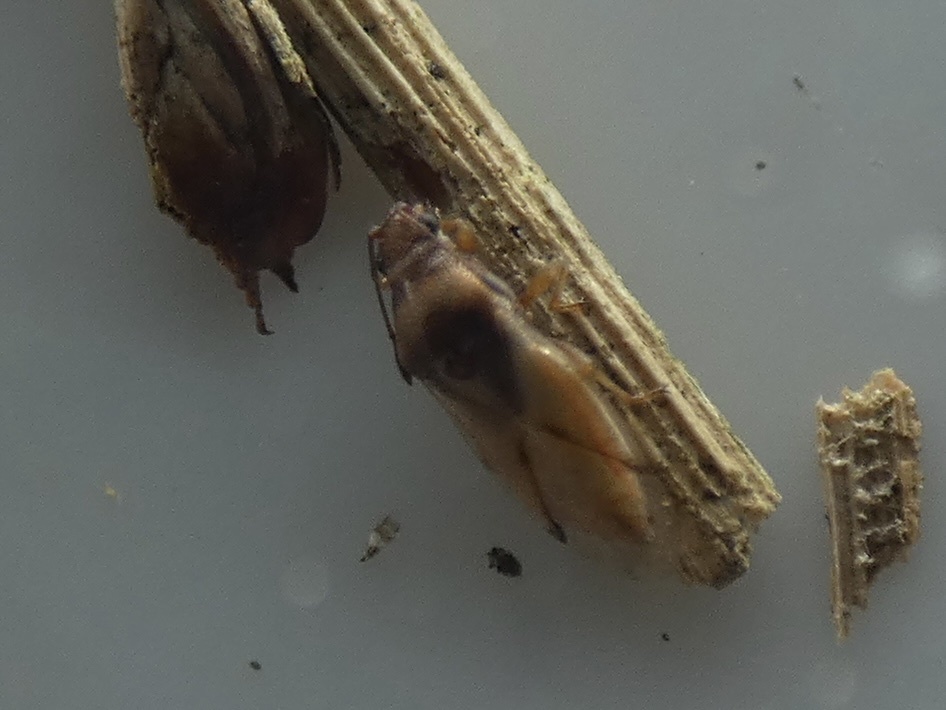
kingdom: Animalia
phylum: Arthropoda
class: Insecta
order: Hemiptera
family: Cymidae
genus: Cymus
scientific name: Cymus glandicolor
